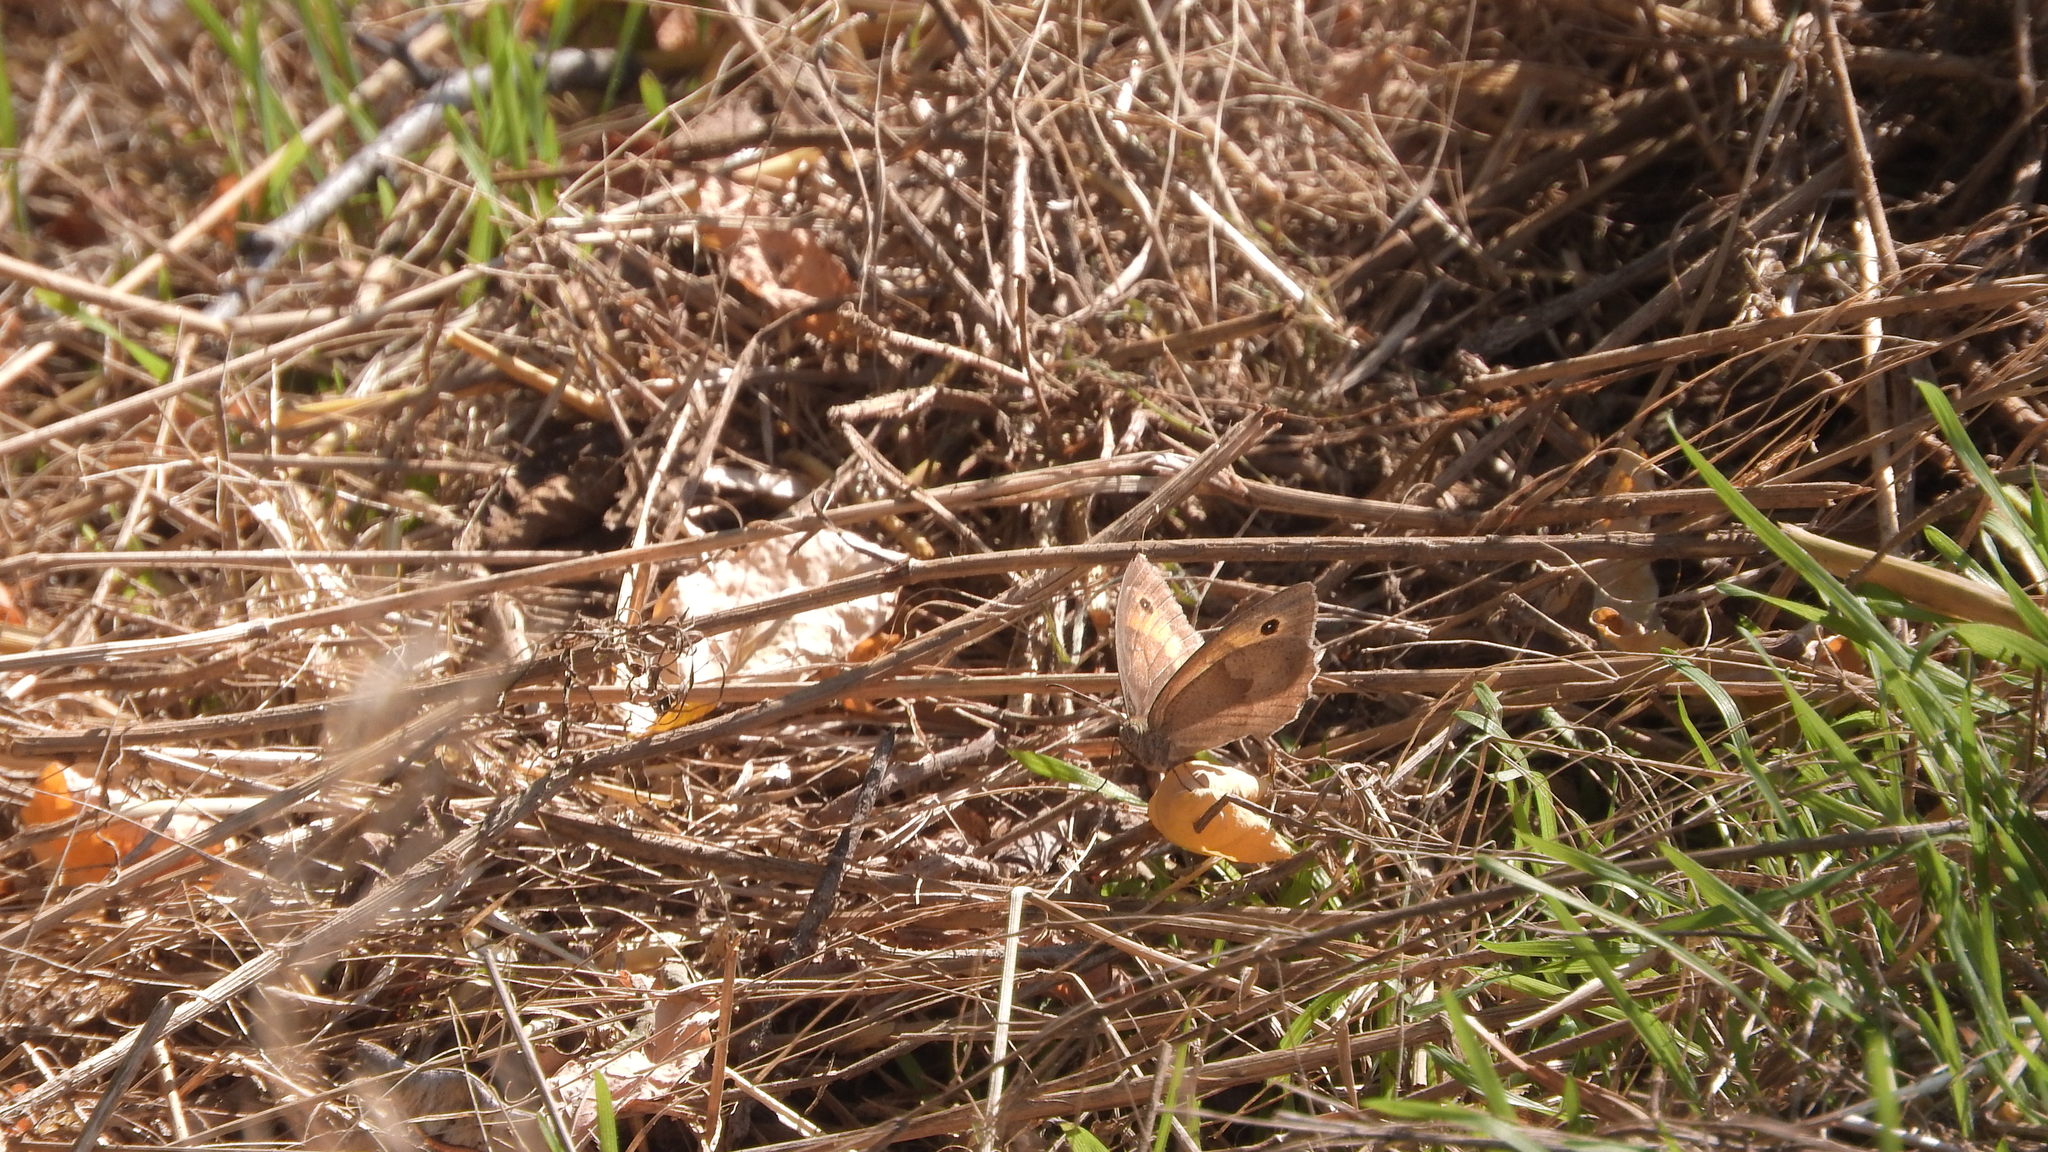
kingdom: Animalia
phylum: Arthropoda
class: Insecta
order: Lepidoptera
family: Nymphalidae
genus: Maniola
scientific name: Maniola jurtina
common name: Meadow brown
